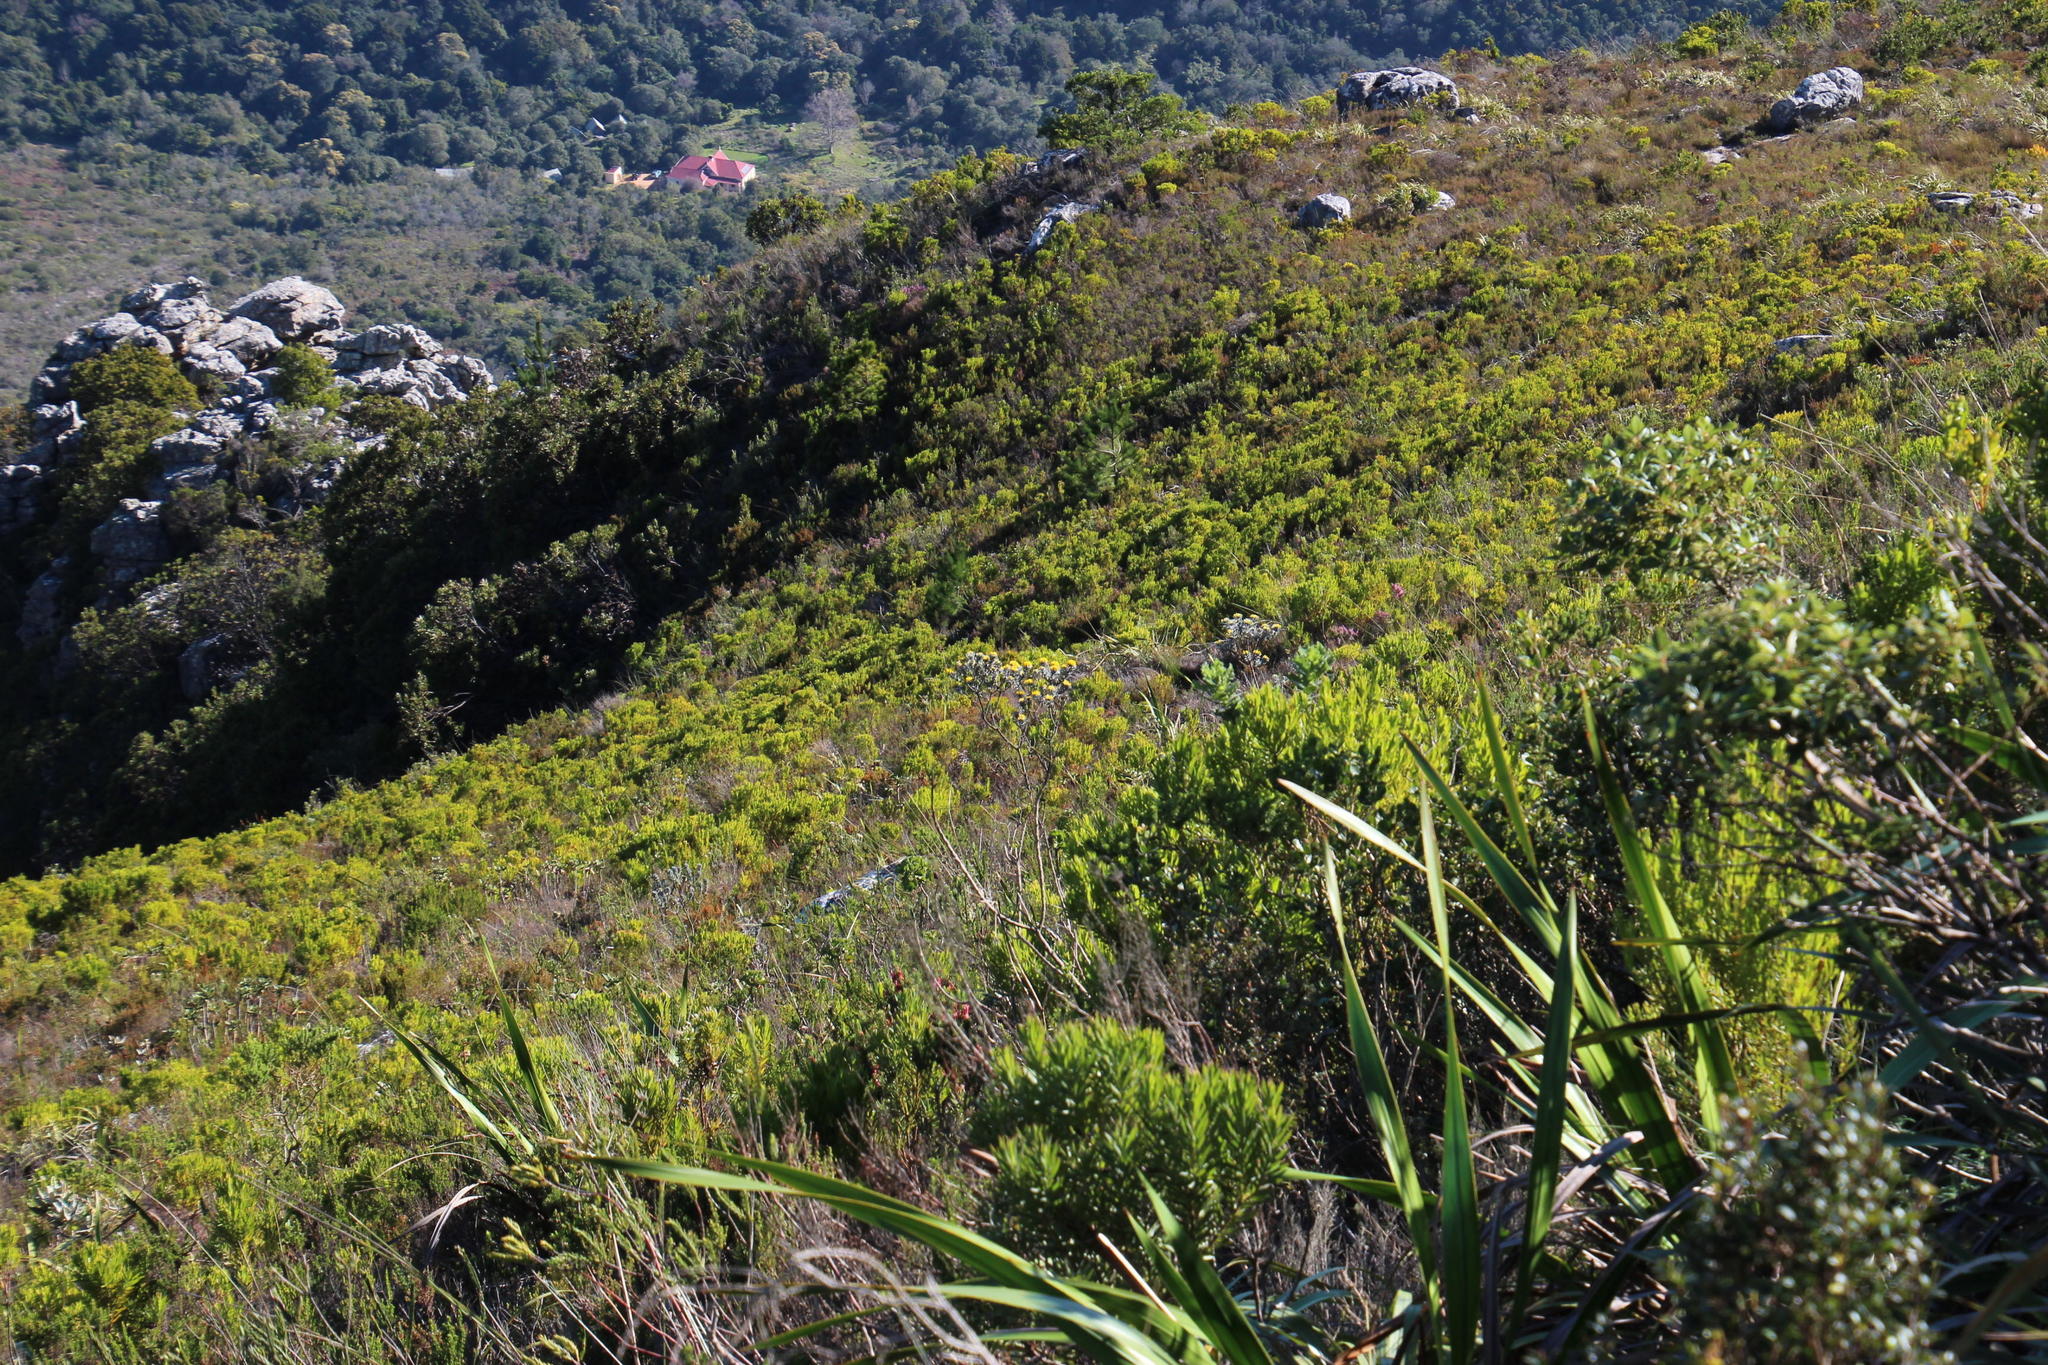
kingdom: Plantae
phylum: Tracheophyta
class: Magnoliopsida
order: Proteales
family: Proteaceae
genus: Leucadendron
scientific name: Leucadendron xanthoconus
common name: Sickle-leaf conebush
